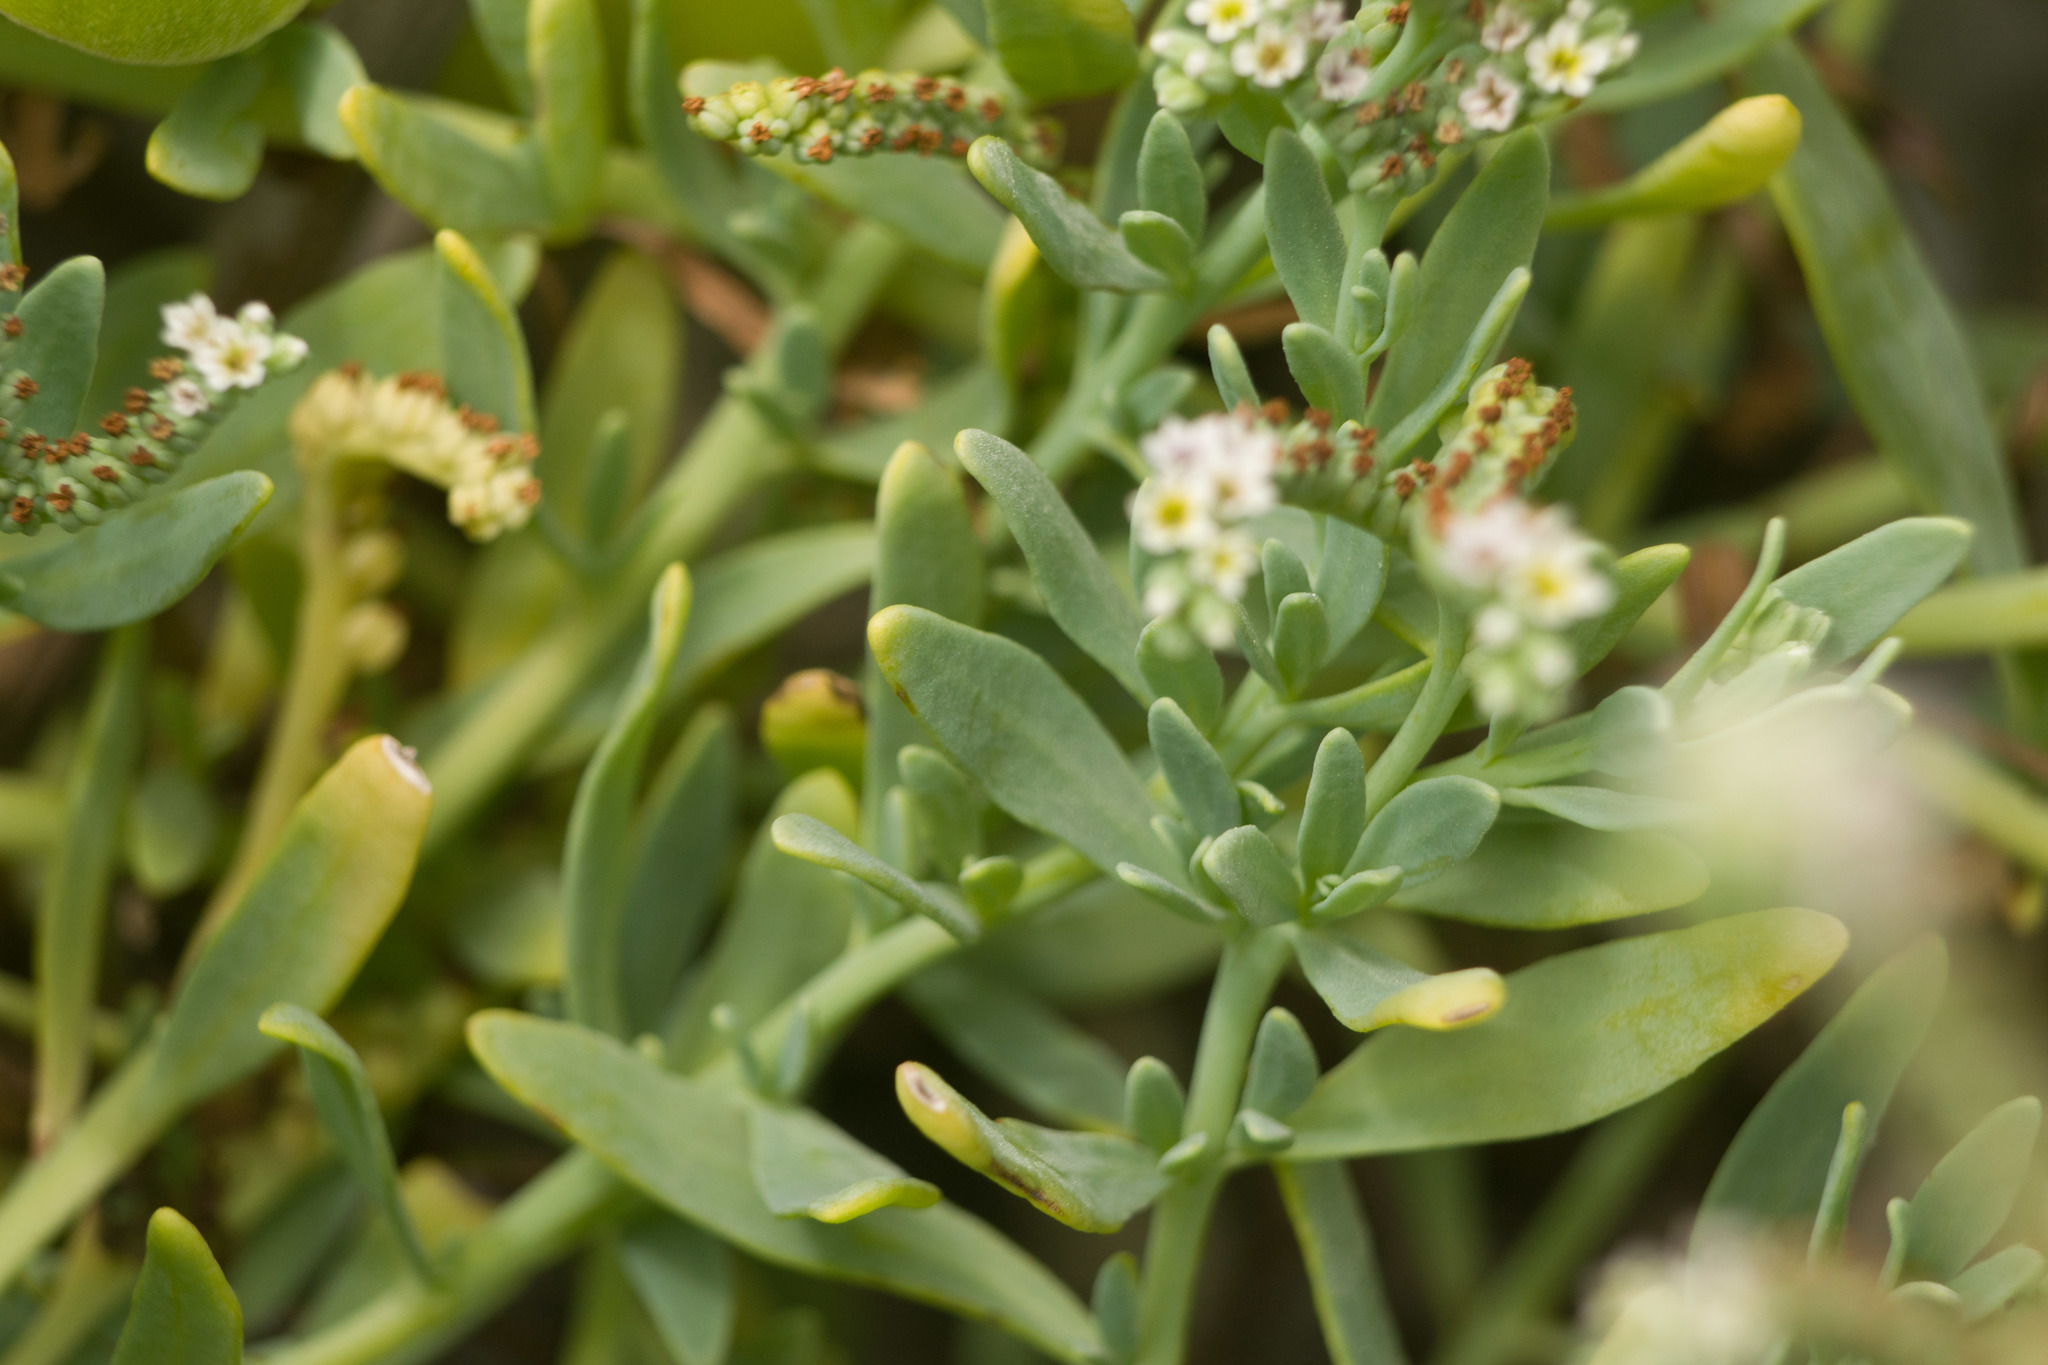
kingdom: Plantae
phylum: Tracheophyta
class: Magnoliopsida
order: Boraginales
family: Heliotropiaceae
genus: Heliotropium
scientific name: Heliotropium curassavicum
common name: Seaside heliotrope
